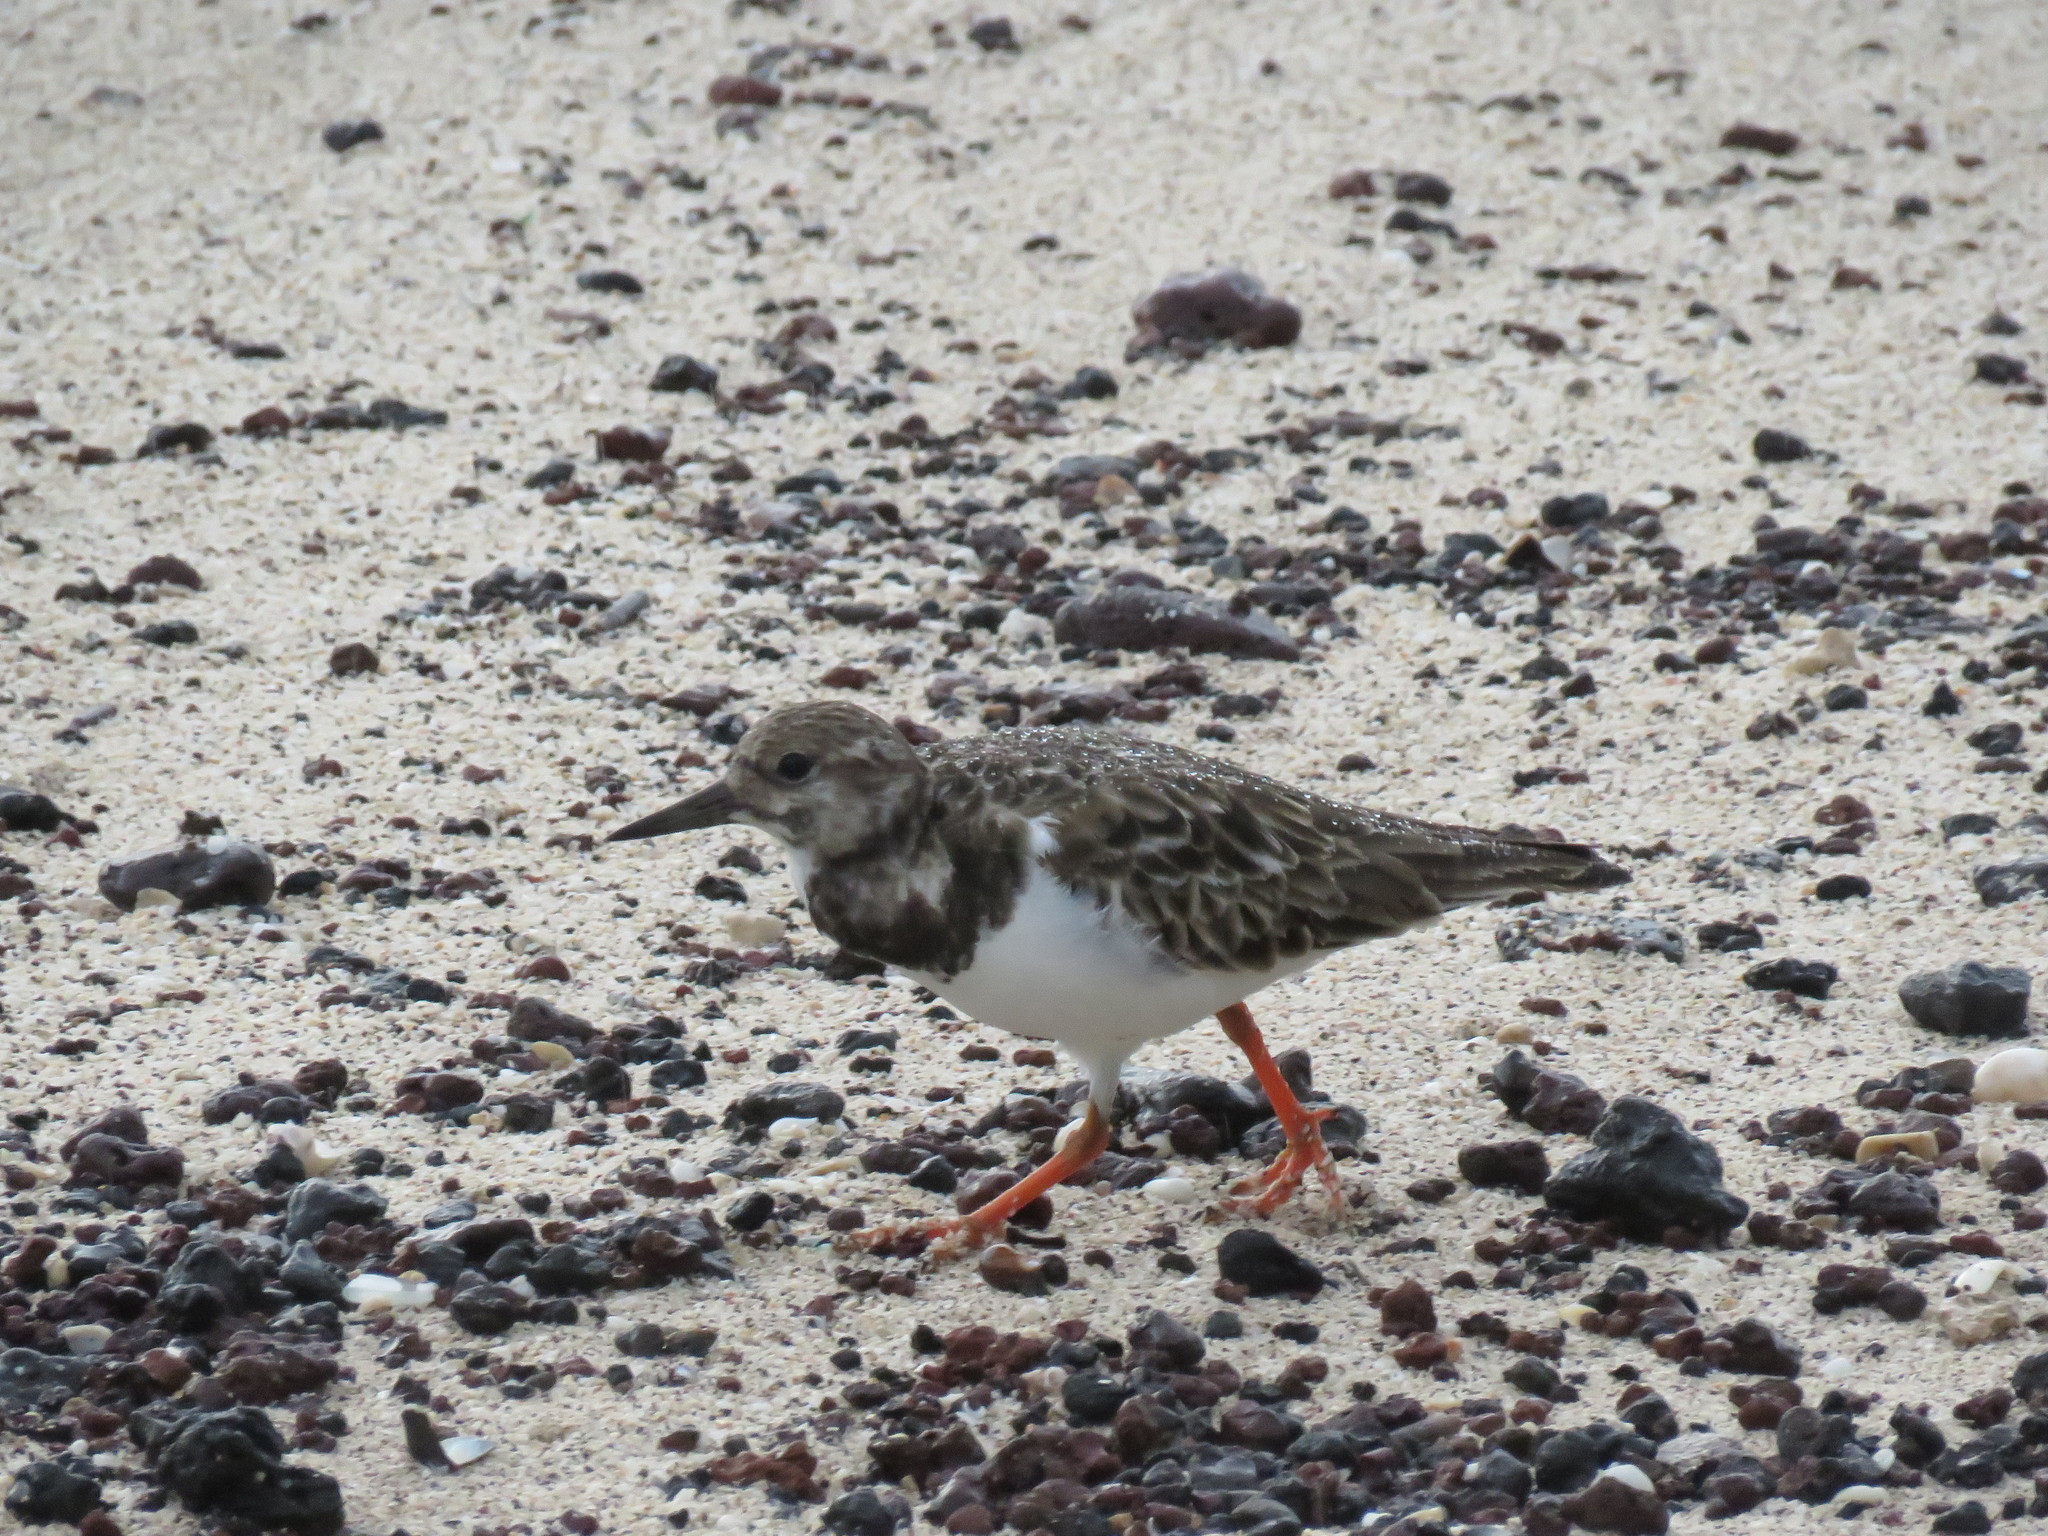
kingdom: Animalia
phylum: Chordata
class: Aves
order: Charadriiformes
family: Scolopacidae
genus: Arenaria
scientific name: Arenaria interpres
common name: Ruddy turnstone
